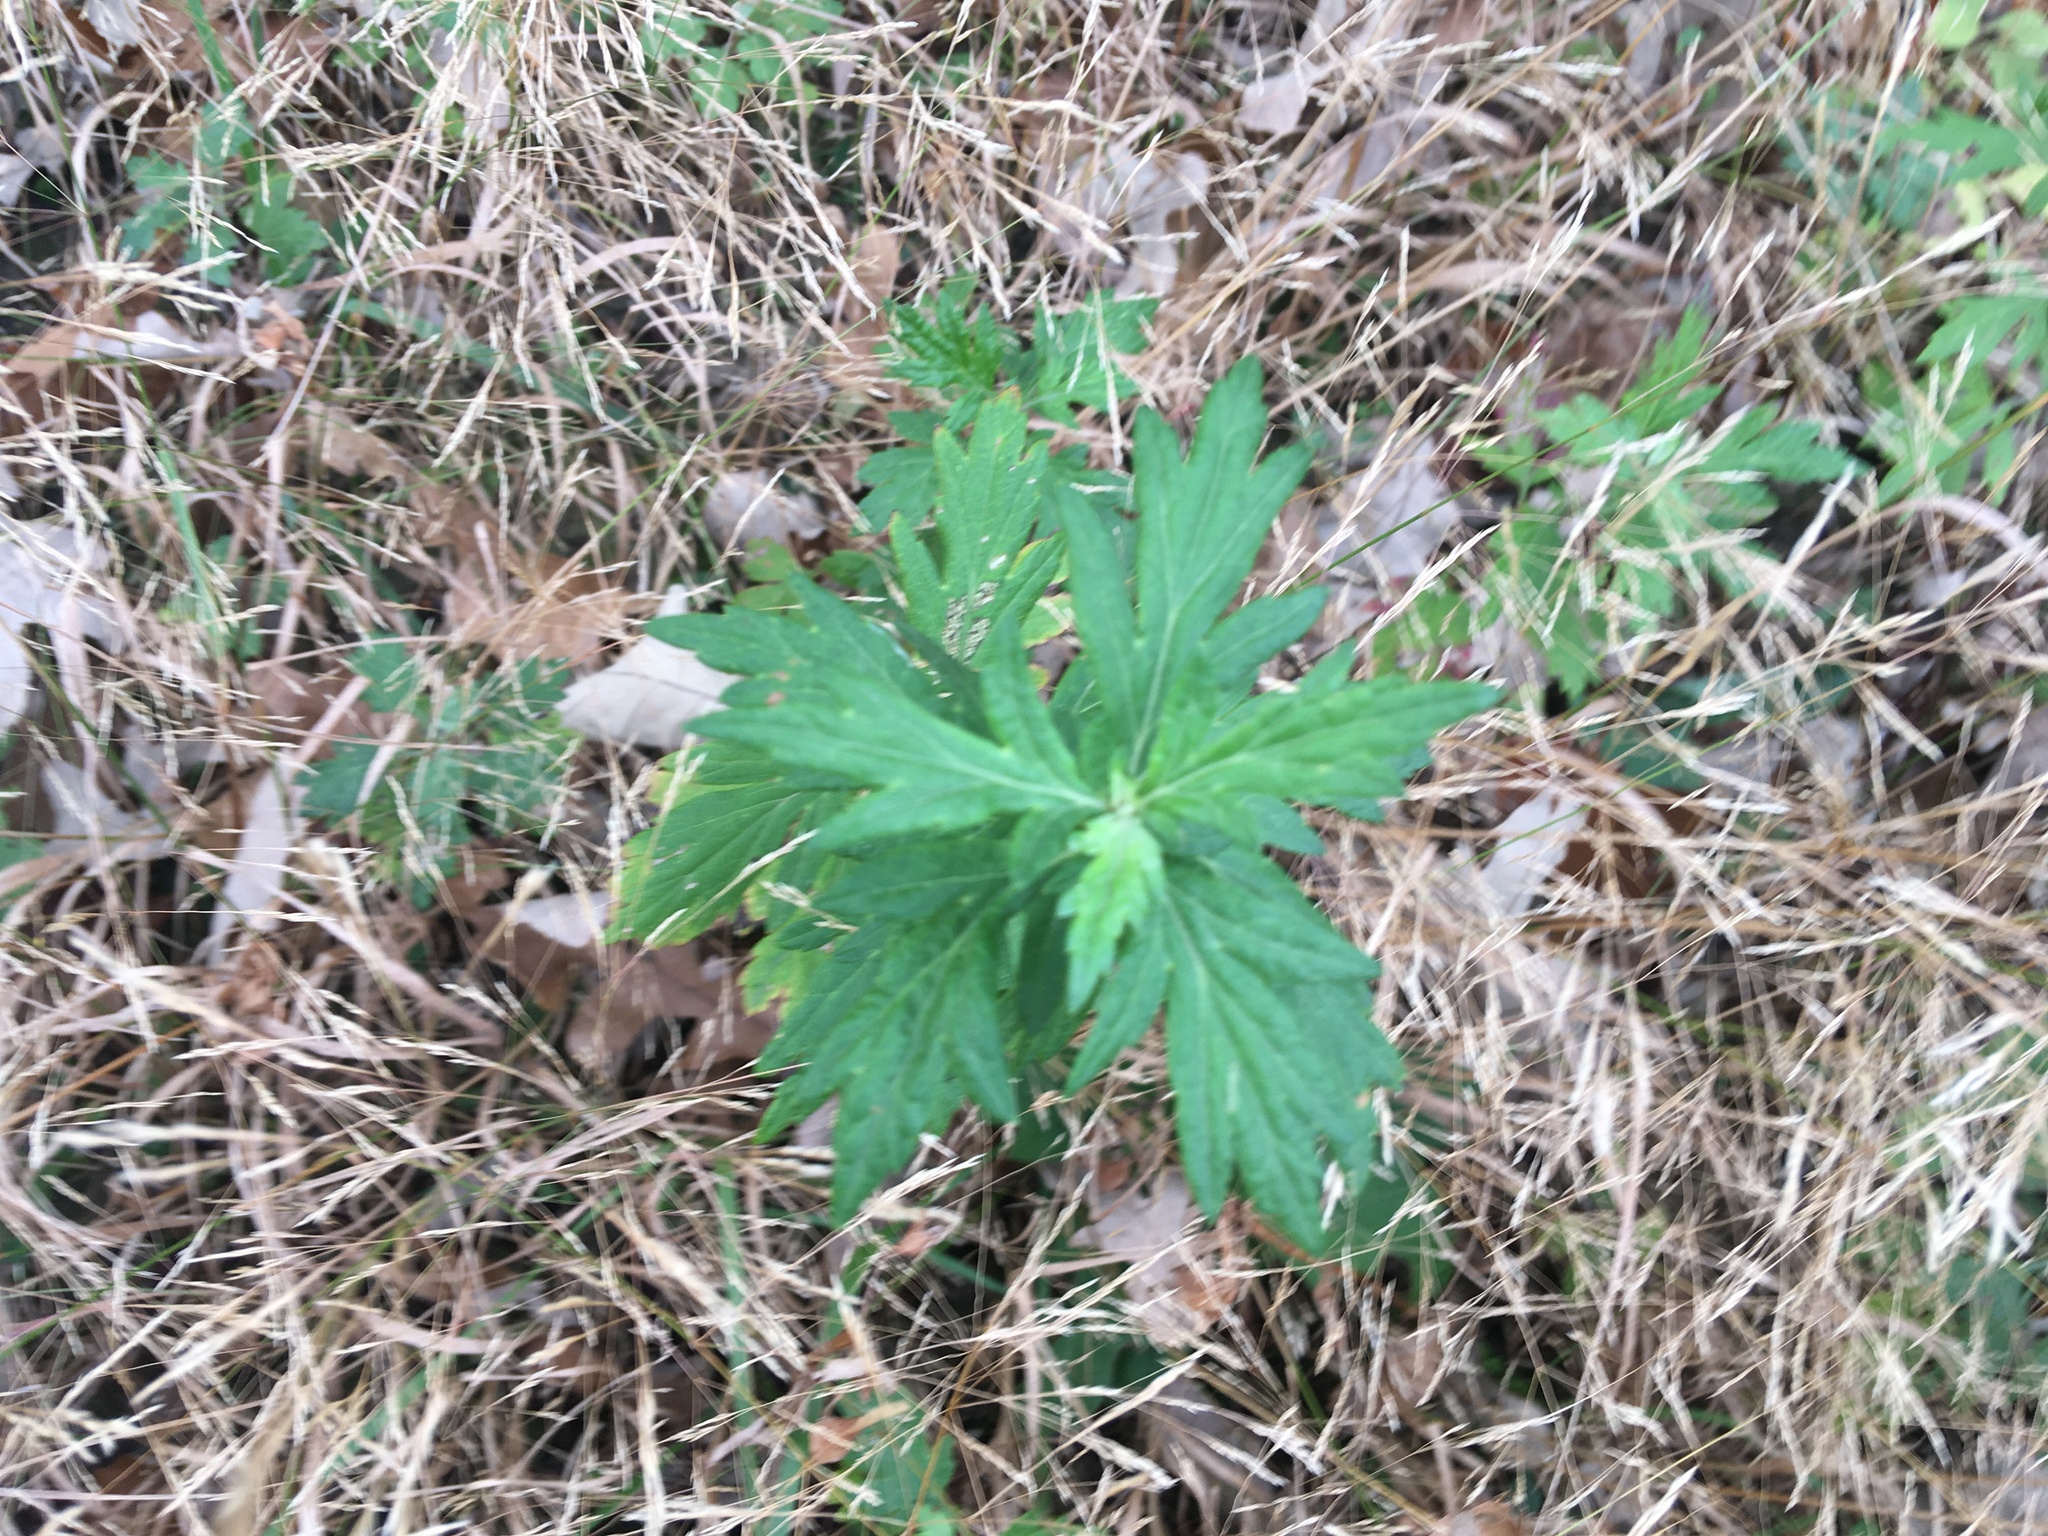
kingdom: Plantae
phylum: Tracheophyta
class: Magnoliopsida
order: Asterales
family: Asteraceae
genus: Artemisia
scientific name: Artemisia vulgaris
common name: Mugwort
